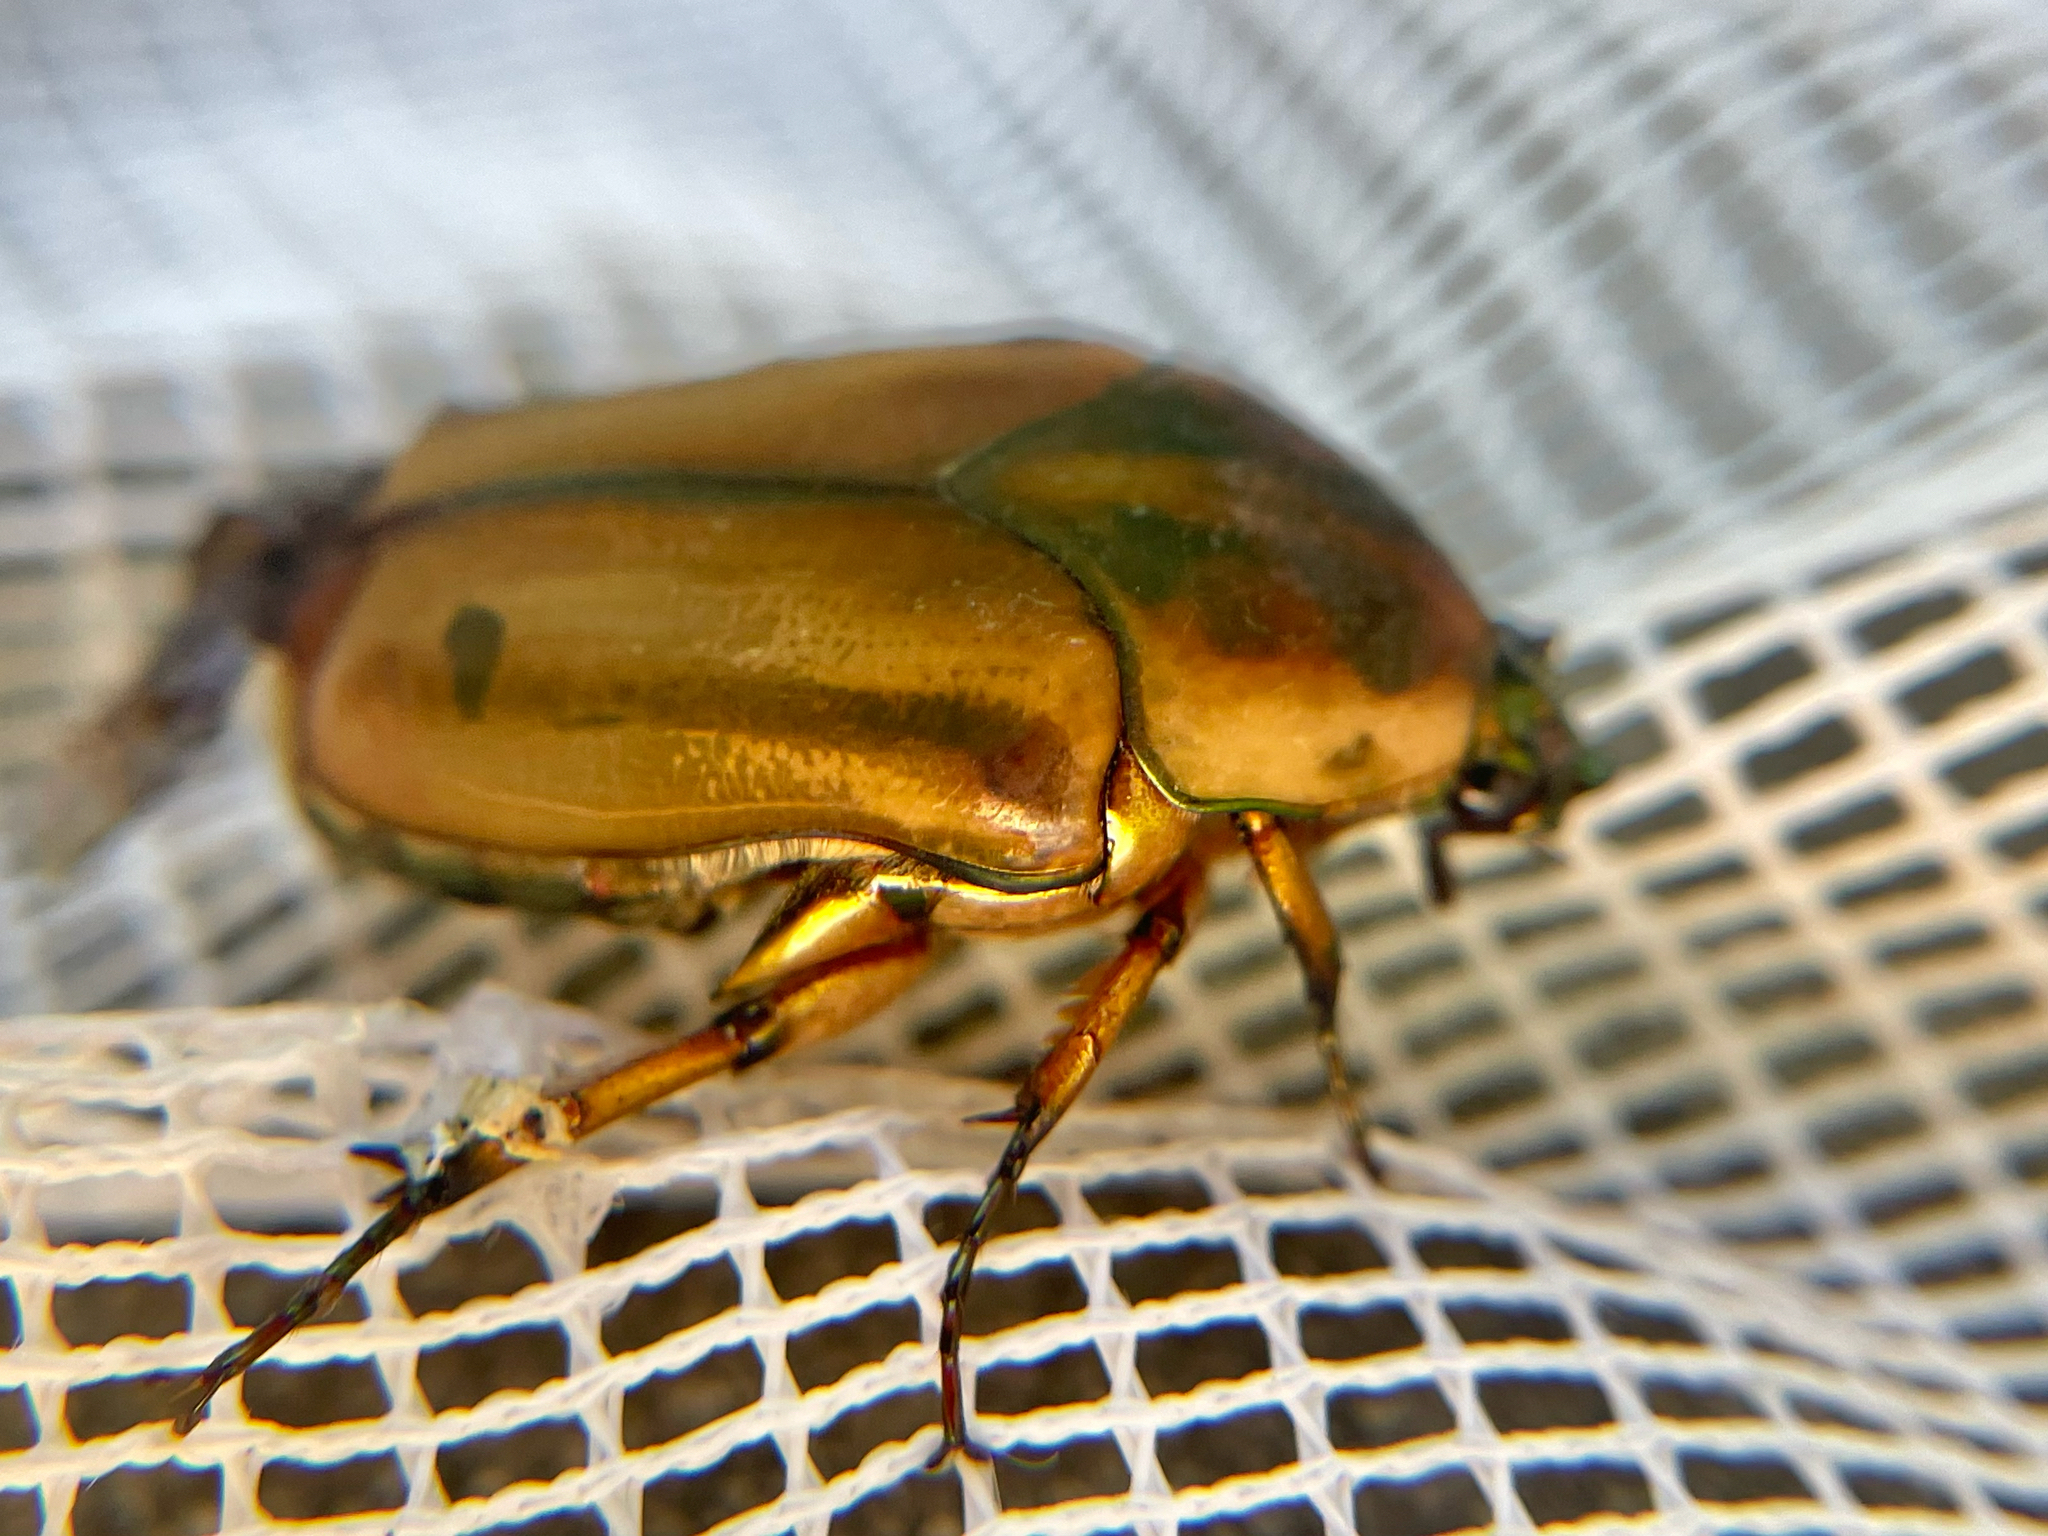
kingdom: Animalia
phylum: Arthropoda
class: Insecta
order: Coleoptera
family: Scarabaeidae
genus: Cotinis
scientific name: Cotinis nitida
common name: Common green june beetle
